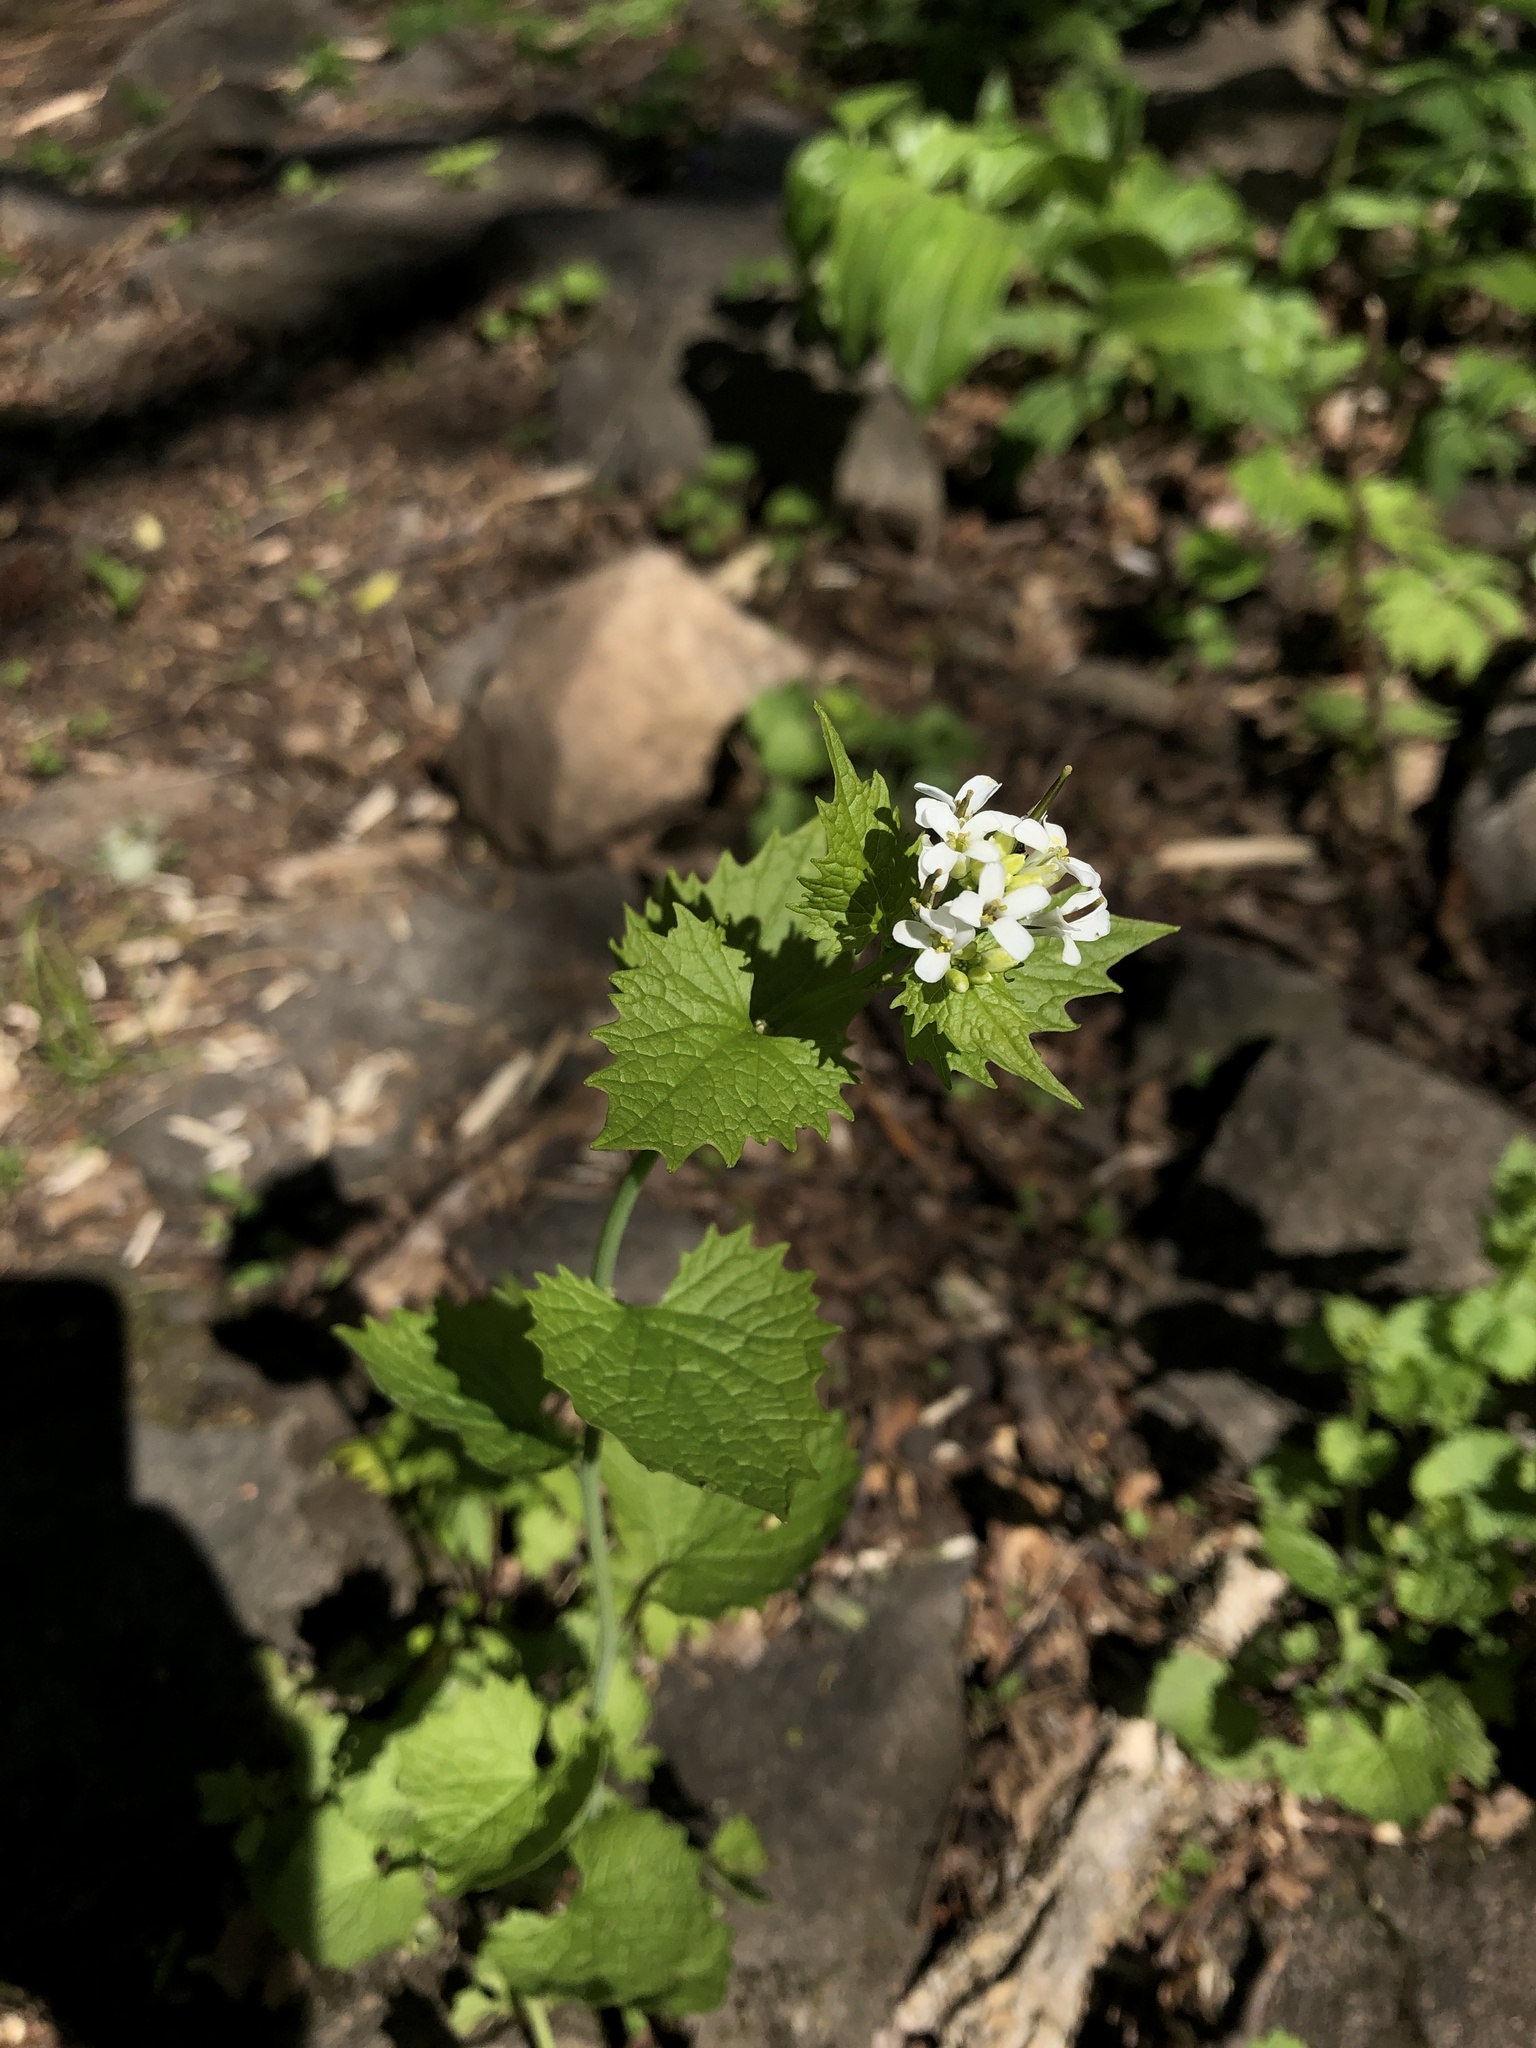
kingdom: Plantae
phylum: Tracheophyta
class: Magnoliopsida
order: Brassicales
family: Brassicaceae
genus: Alliaria
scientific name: Alliaria petiolata
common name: Garlic mustard
